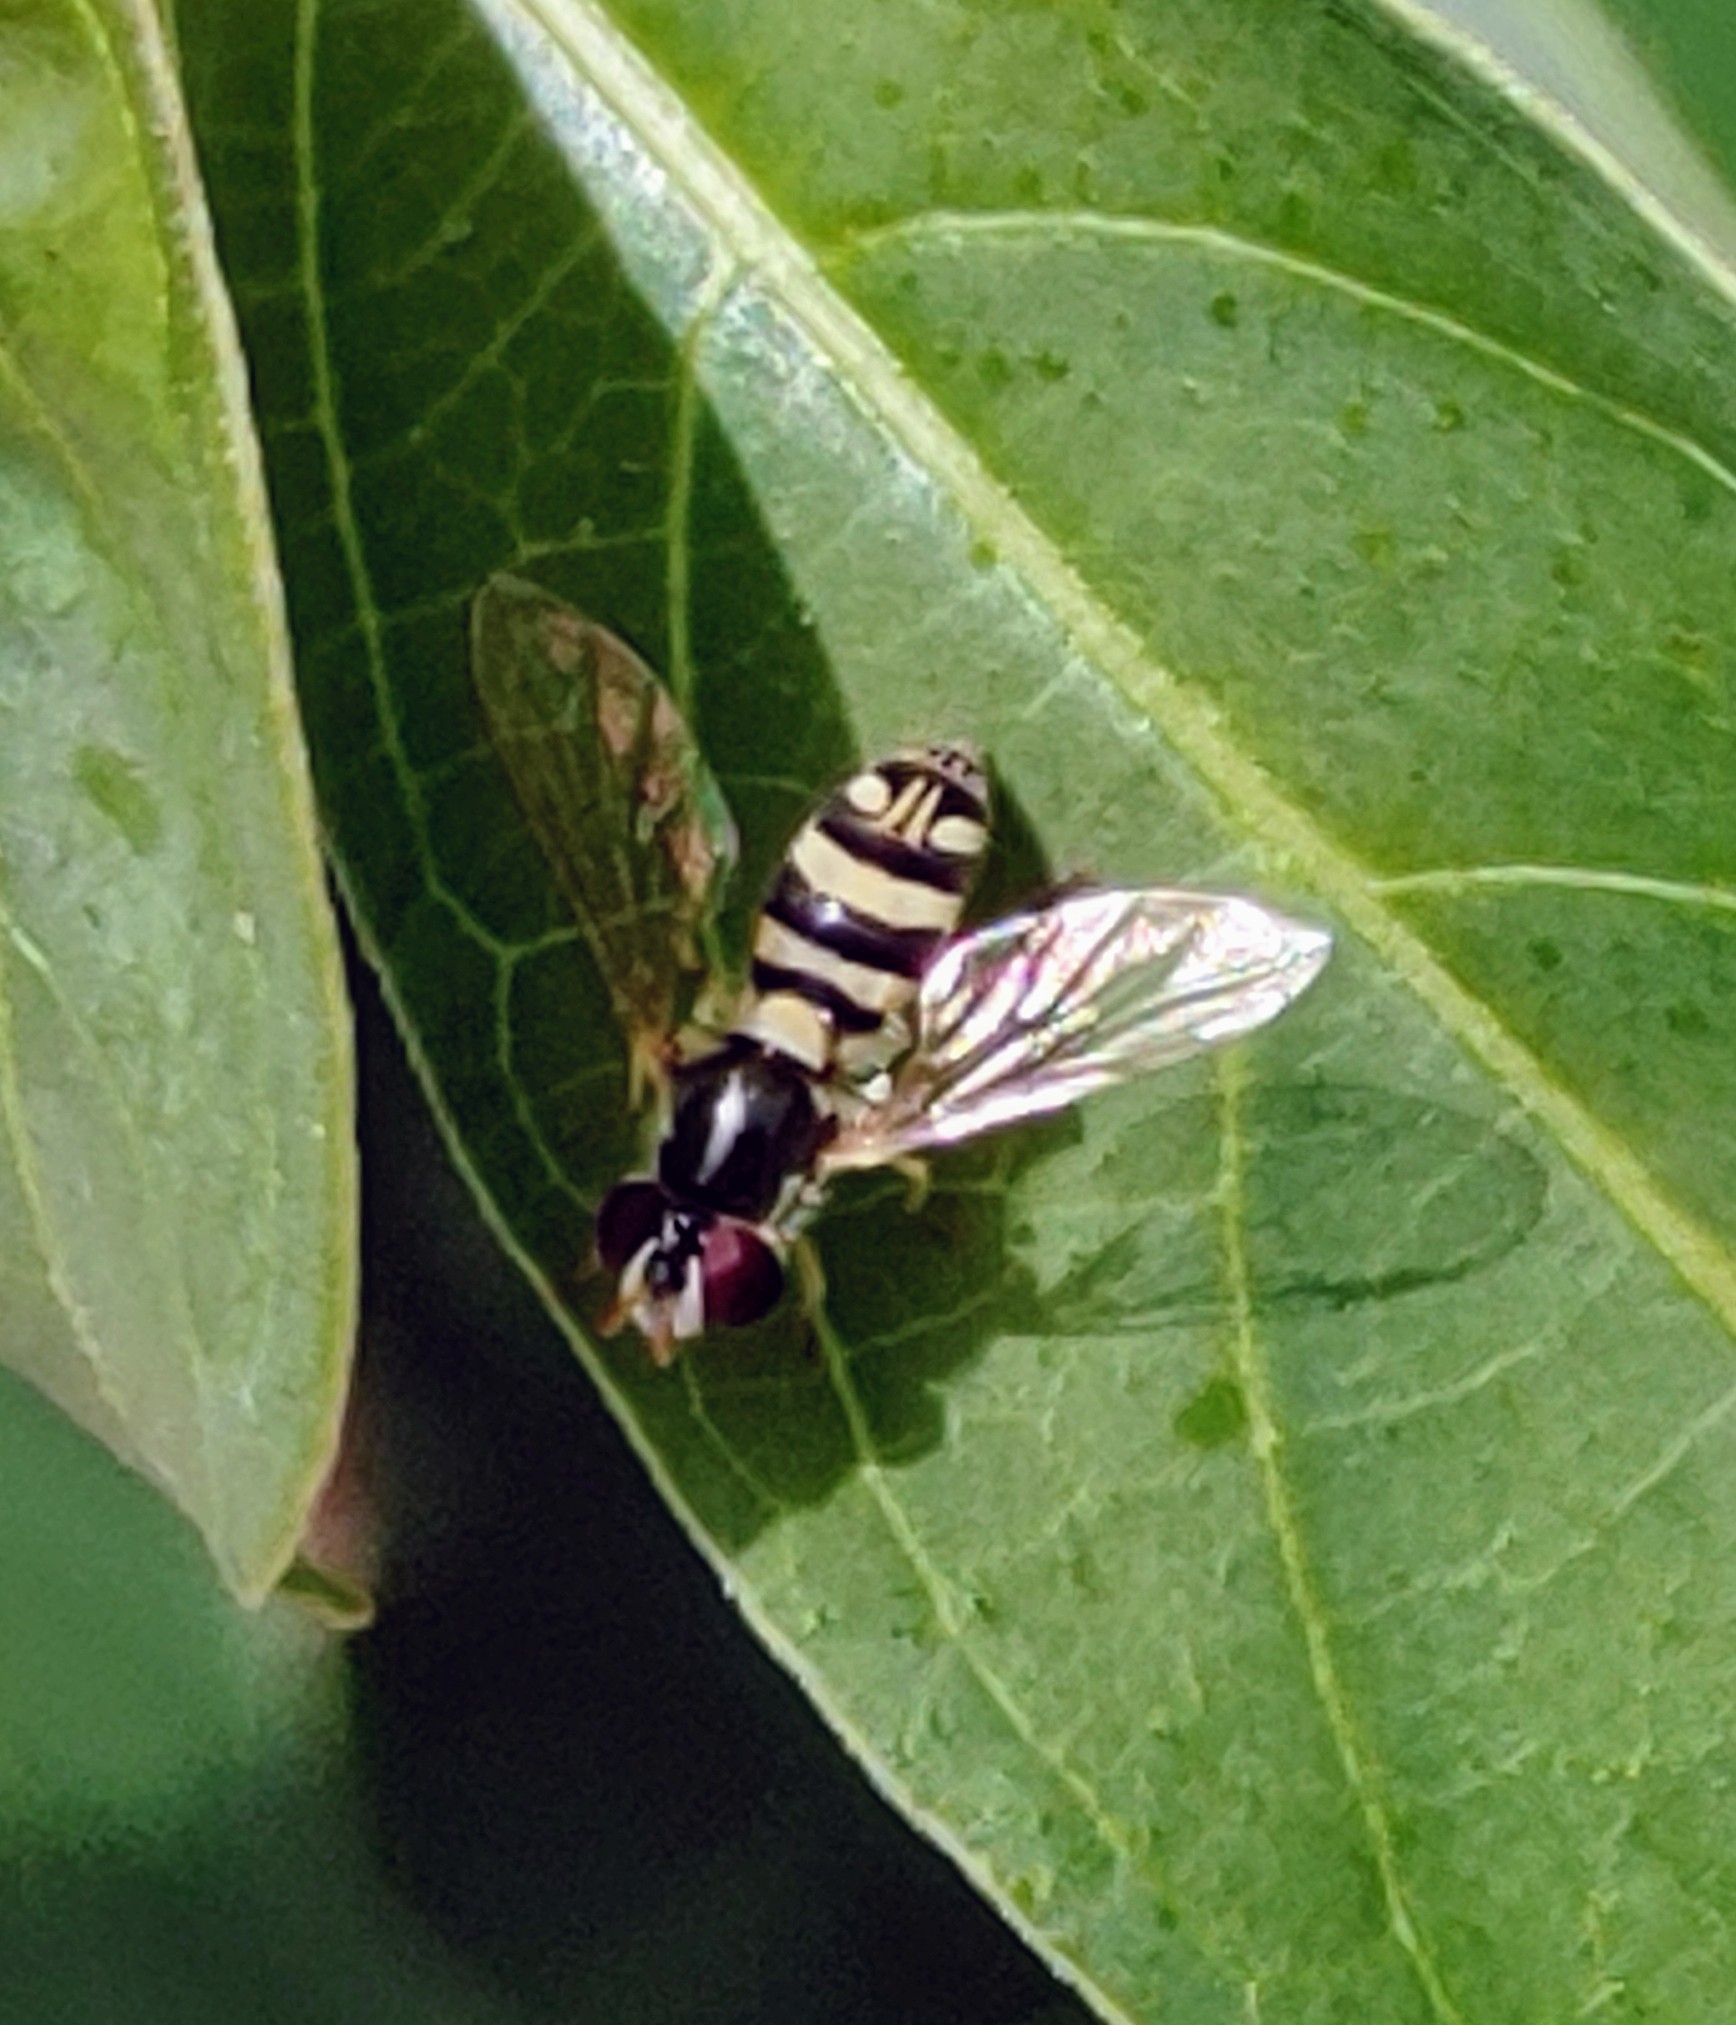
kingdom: Animalia
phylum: Arthropoda
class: Insecta
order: Diptera
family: Syrphidae
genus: Allograpta
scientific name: Allograpta exotica
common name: Syrphid fly
